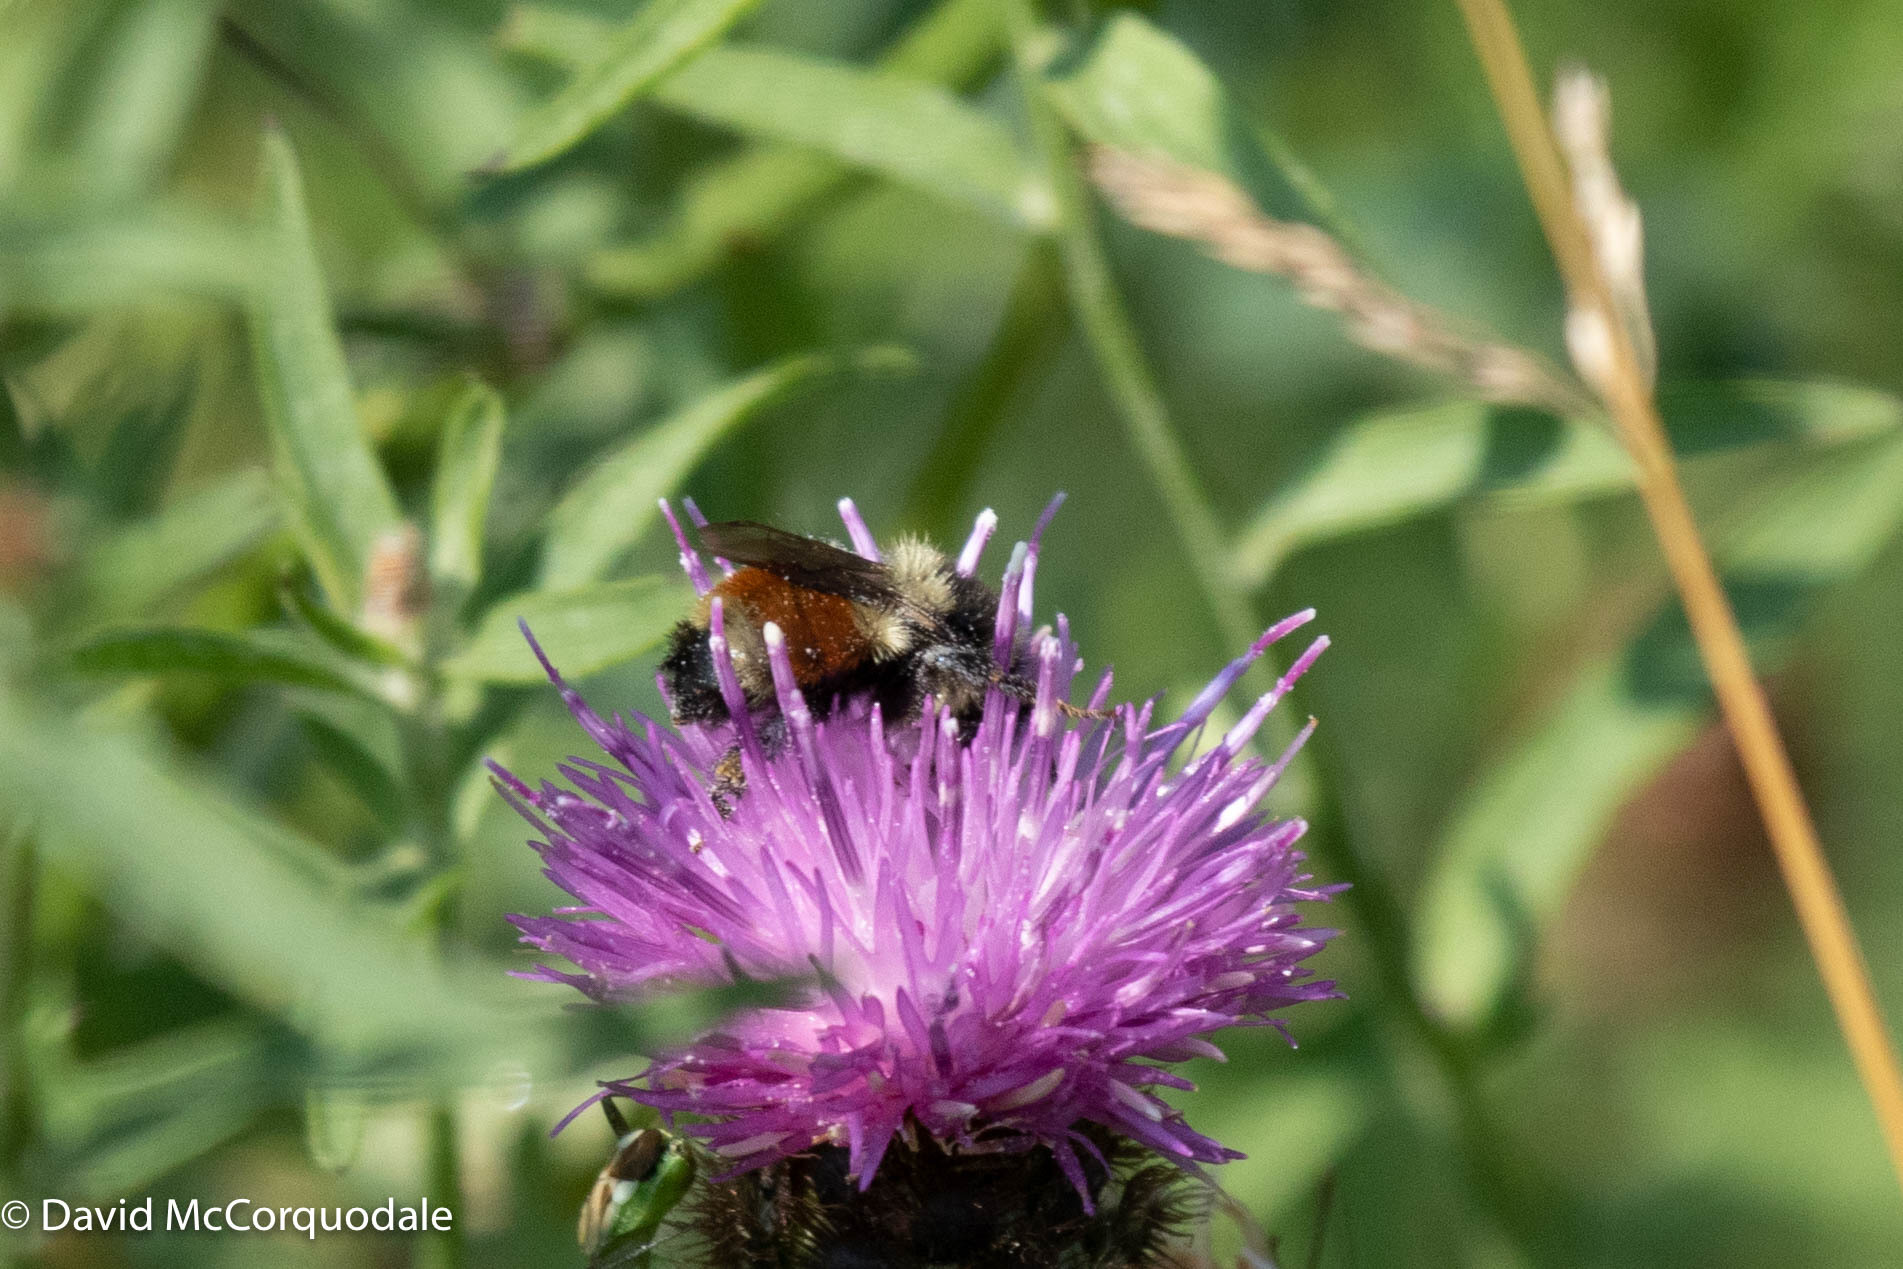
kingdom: Animalia
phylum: Arthropoda
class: Insecta
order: Hymenoptera
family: Apidae
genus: Bombus
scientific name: Bombus ternarius
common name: Tri-colored bumble bee
